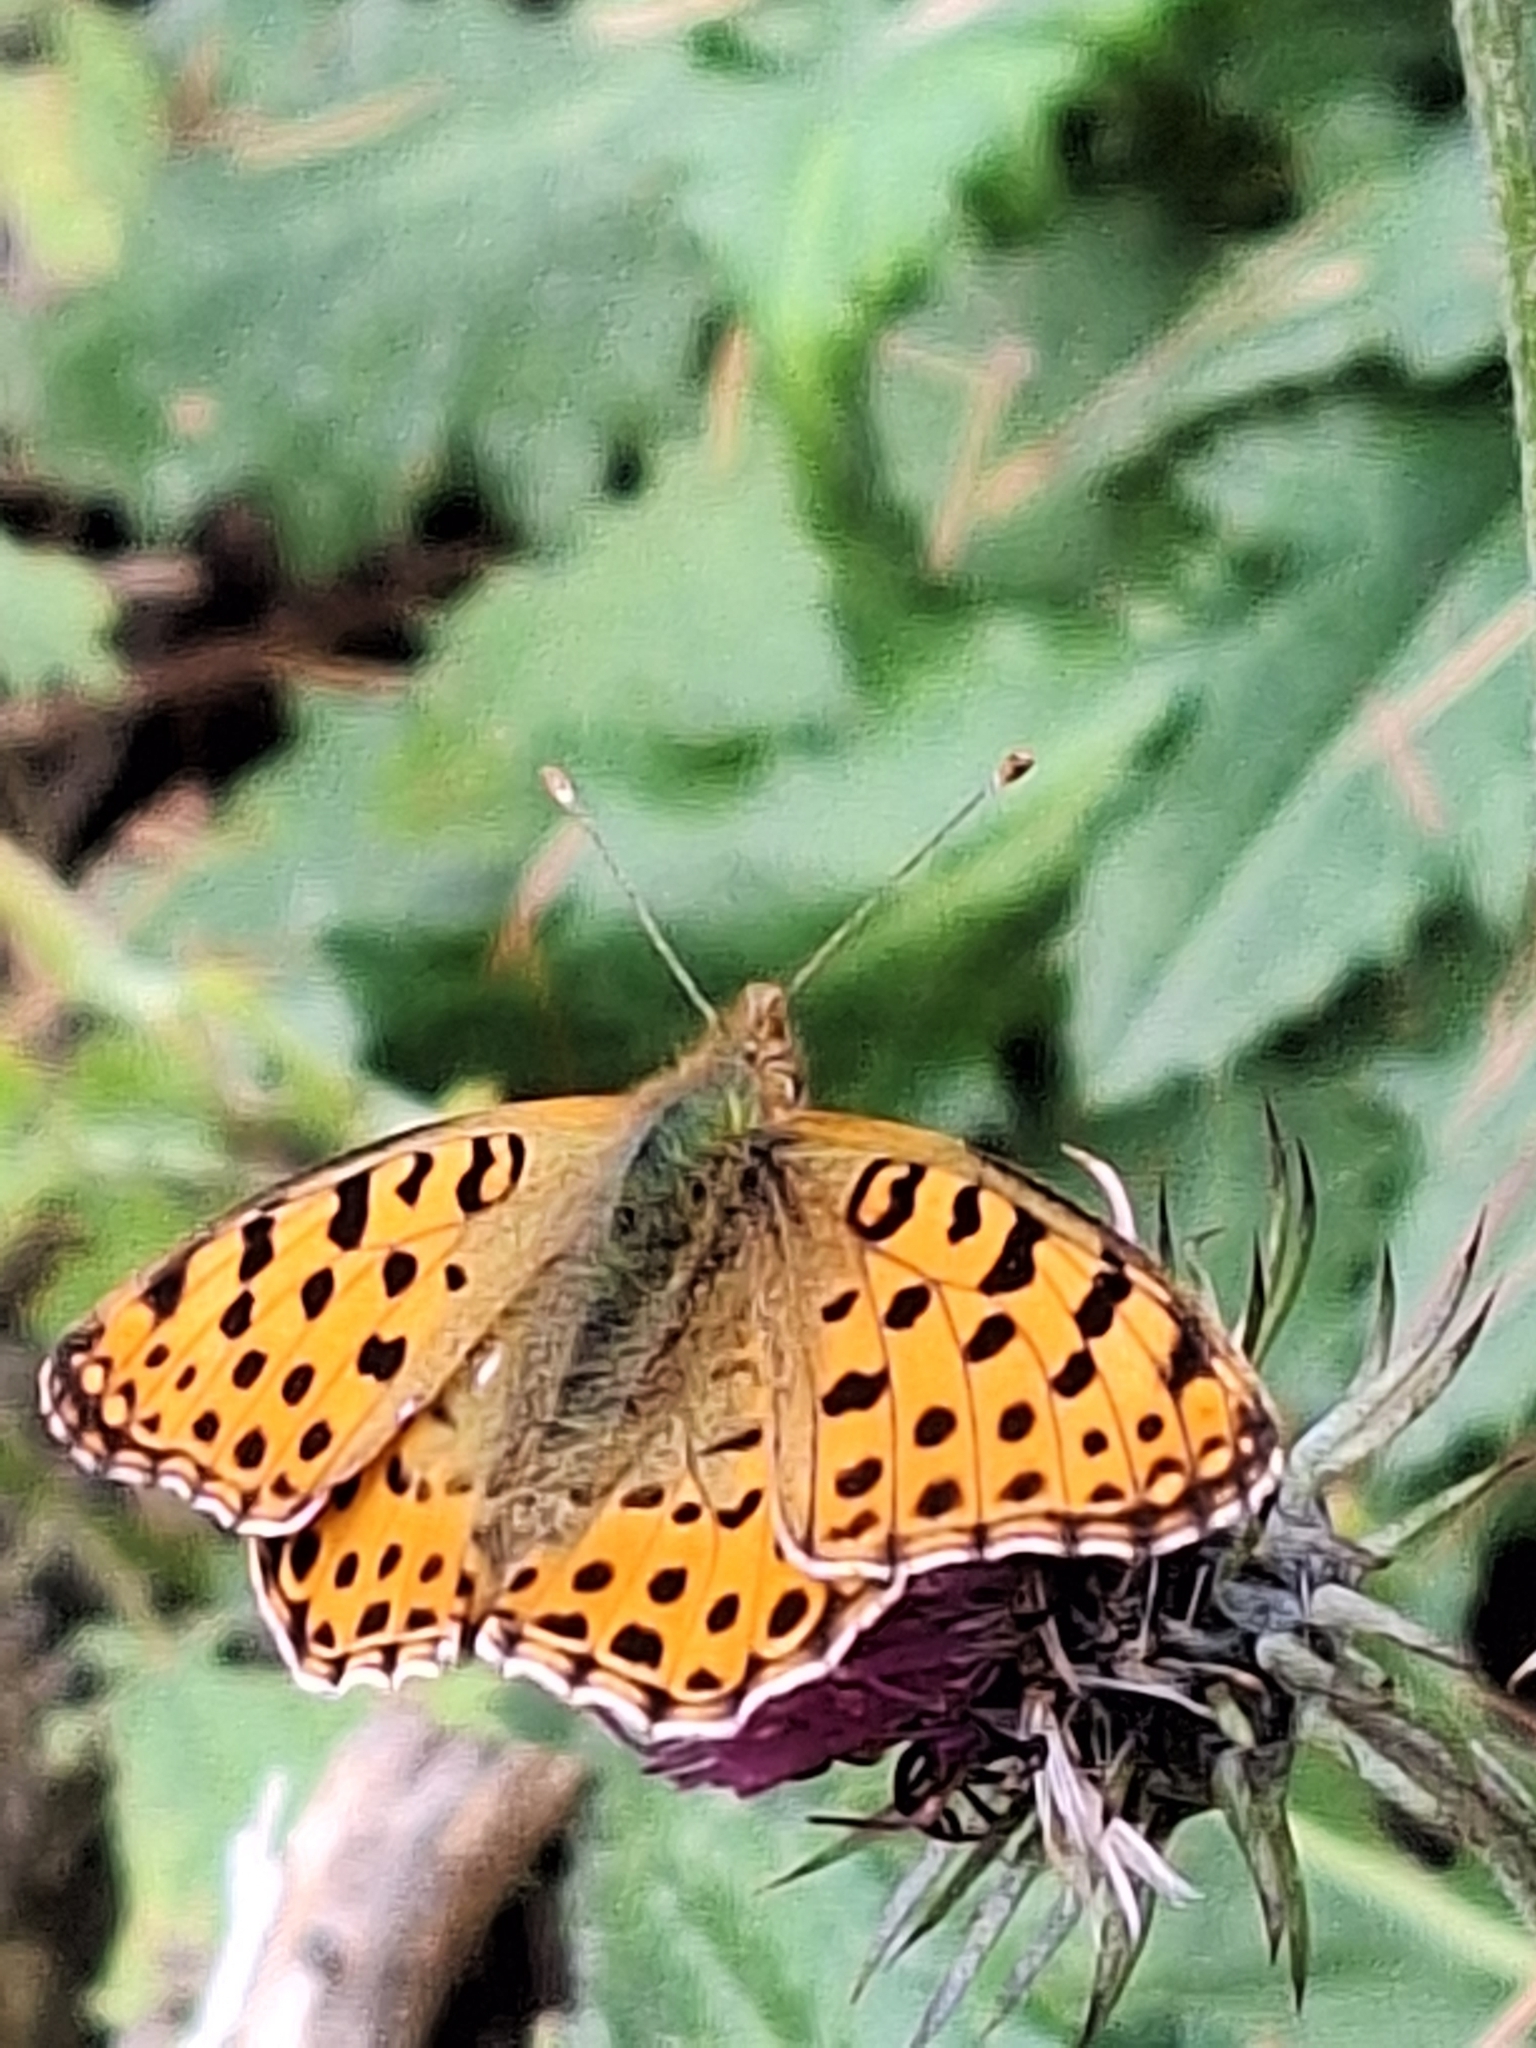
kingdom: Animalia
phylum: Arthropoda
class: Insecta
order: Lepidoptera
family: Nymphalidae
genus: Issoria
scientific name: Issoria lathonia
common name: Queen of spain fritillary
